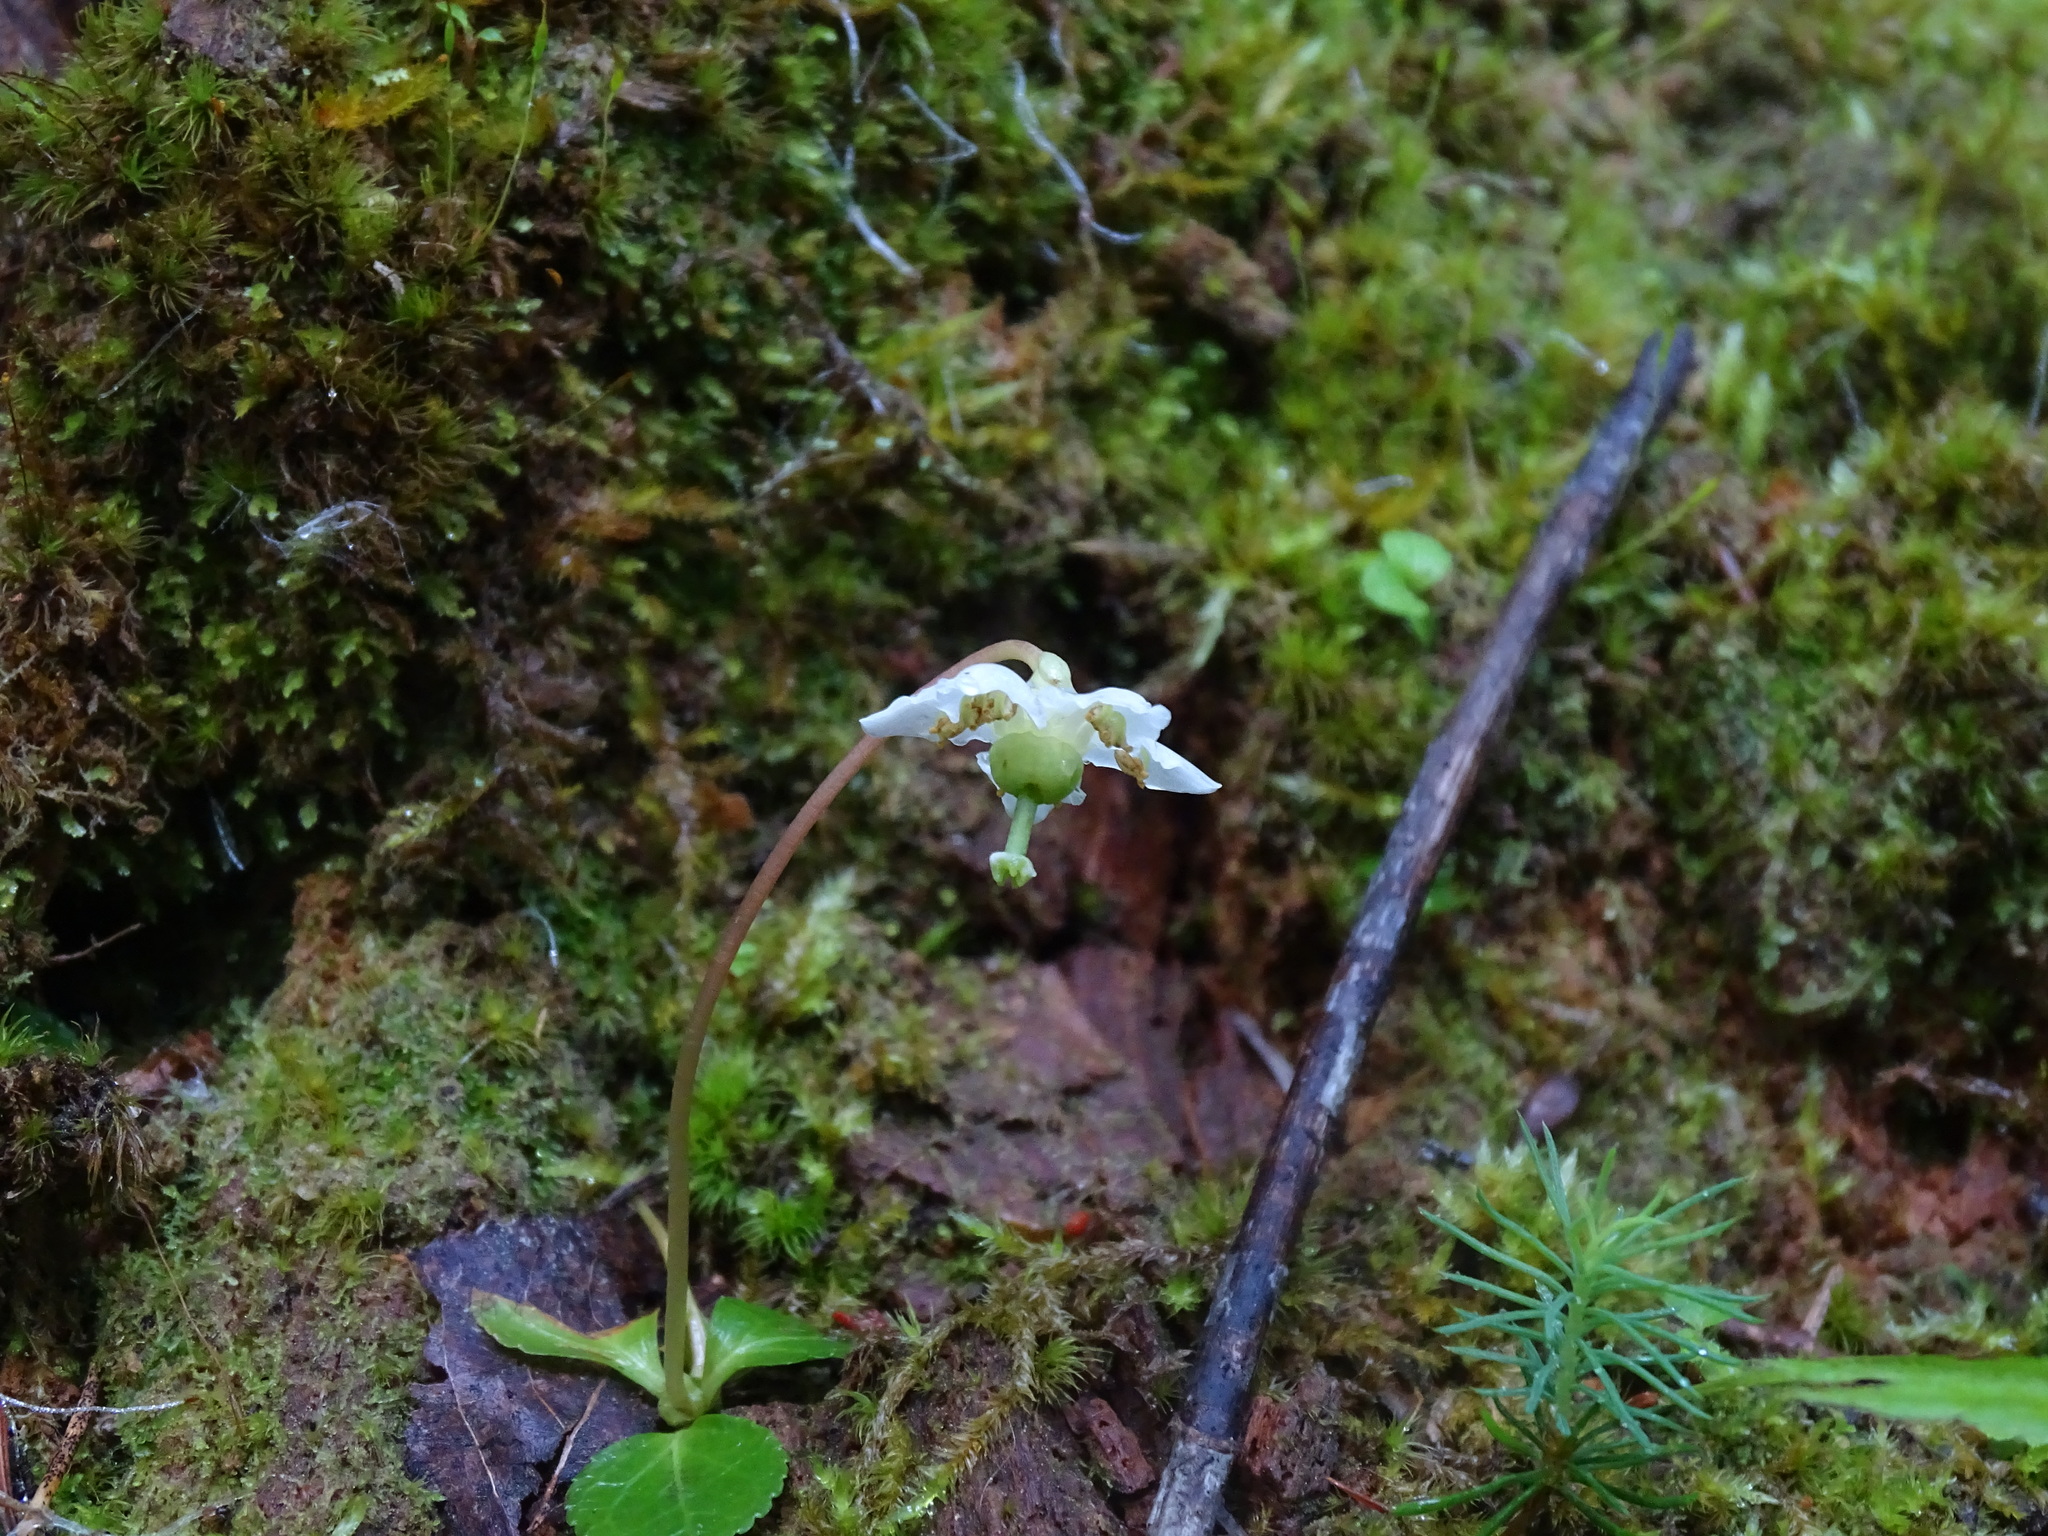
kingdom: Plantae
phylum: Tracheophyta
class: Magnoliopsida
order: Ericales
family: Ericaceae
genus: Moneses
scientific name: Moneses uniflora
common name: One-flowered wintergreen
